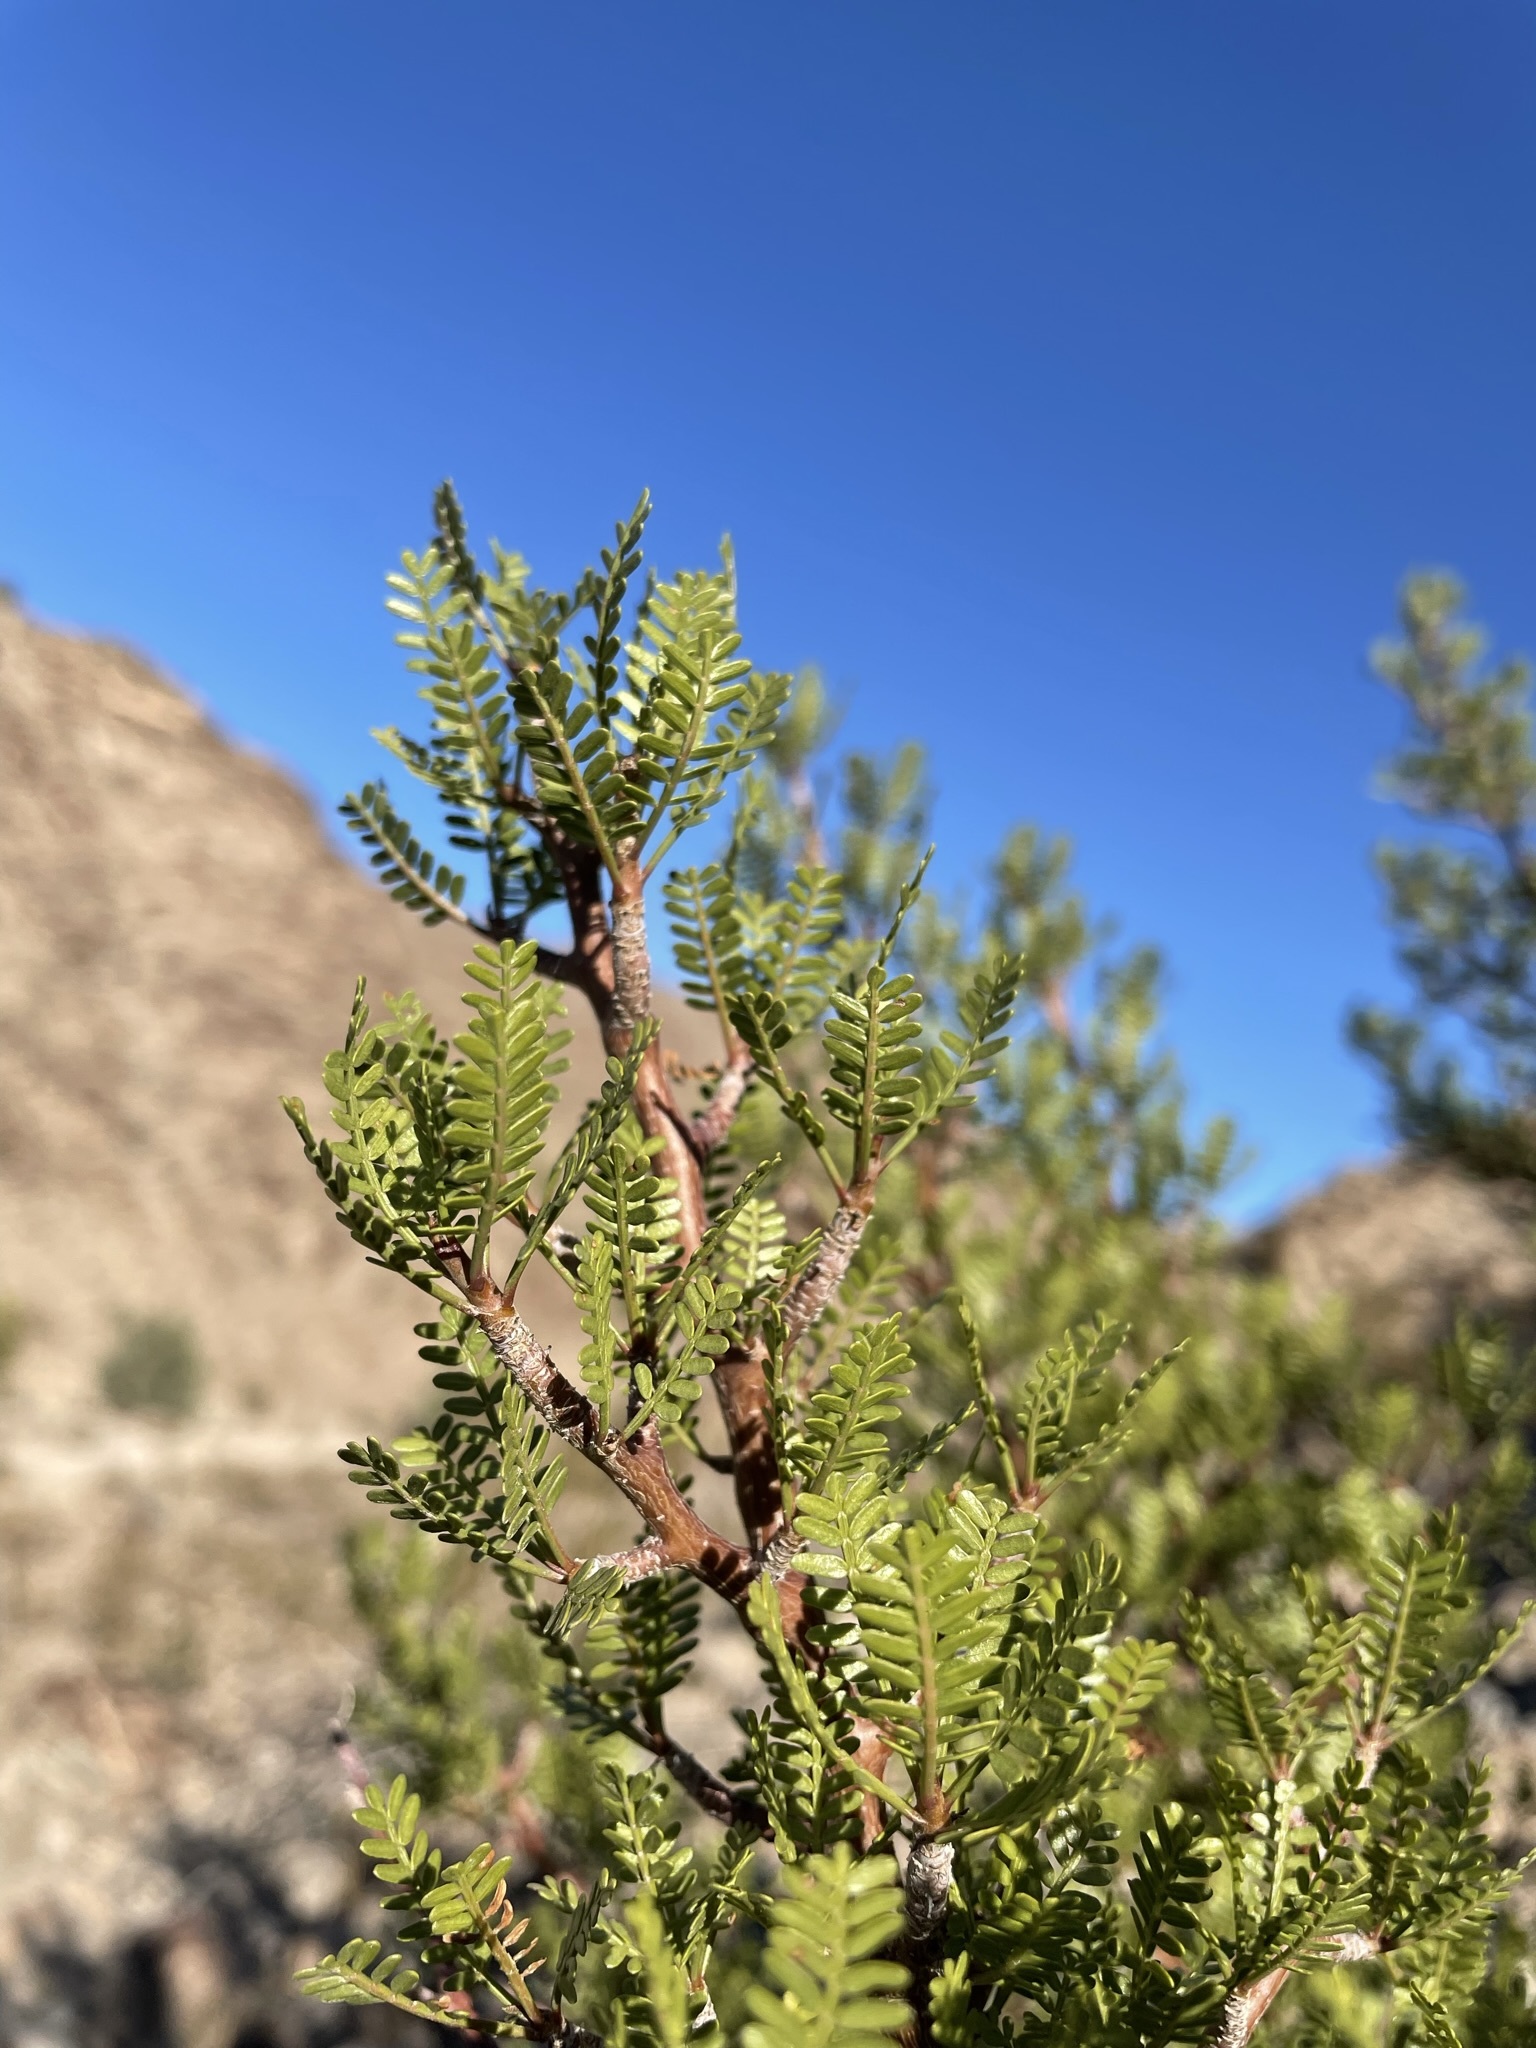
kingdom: Plantae
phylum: Tracheophyta
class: Magnoliopsida
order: Sapindales
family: Burseraceae
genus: Bursera
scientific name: Bursera microphylla
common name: Elephant tree
